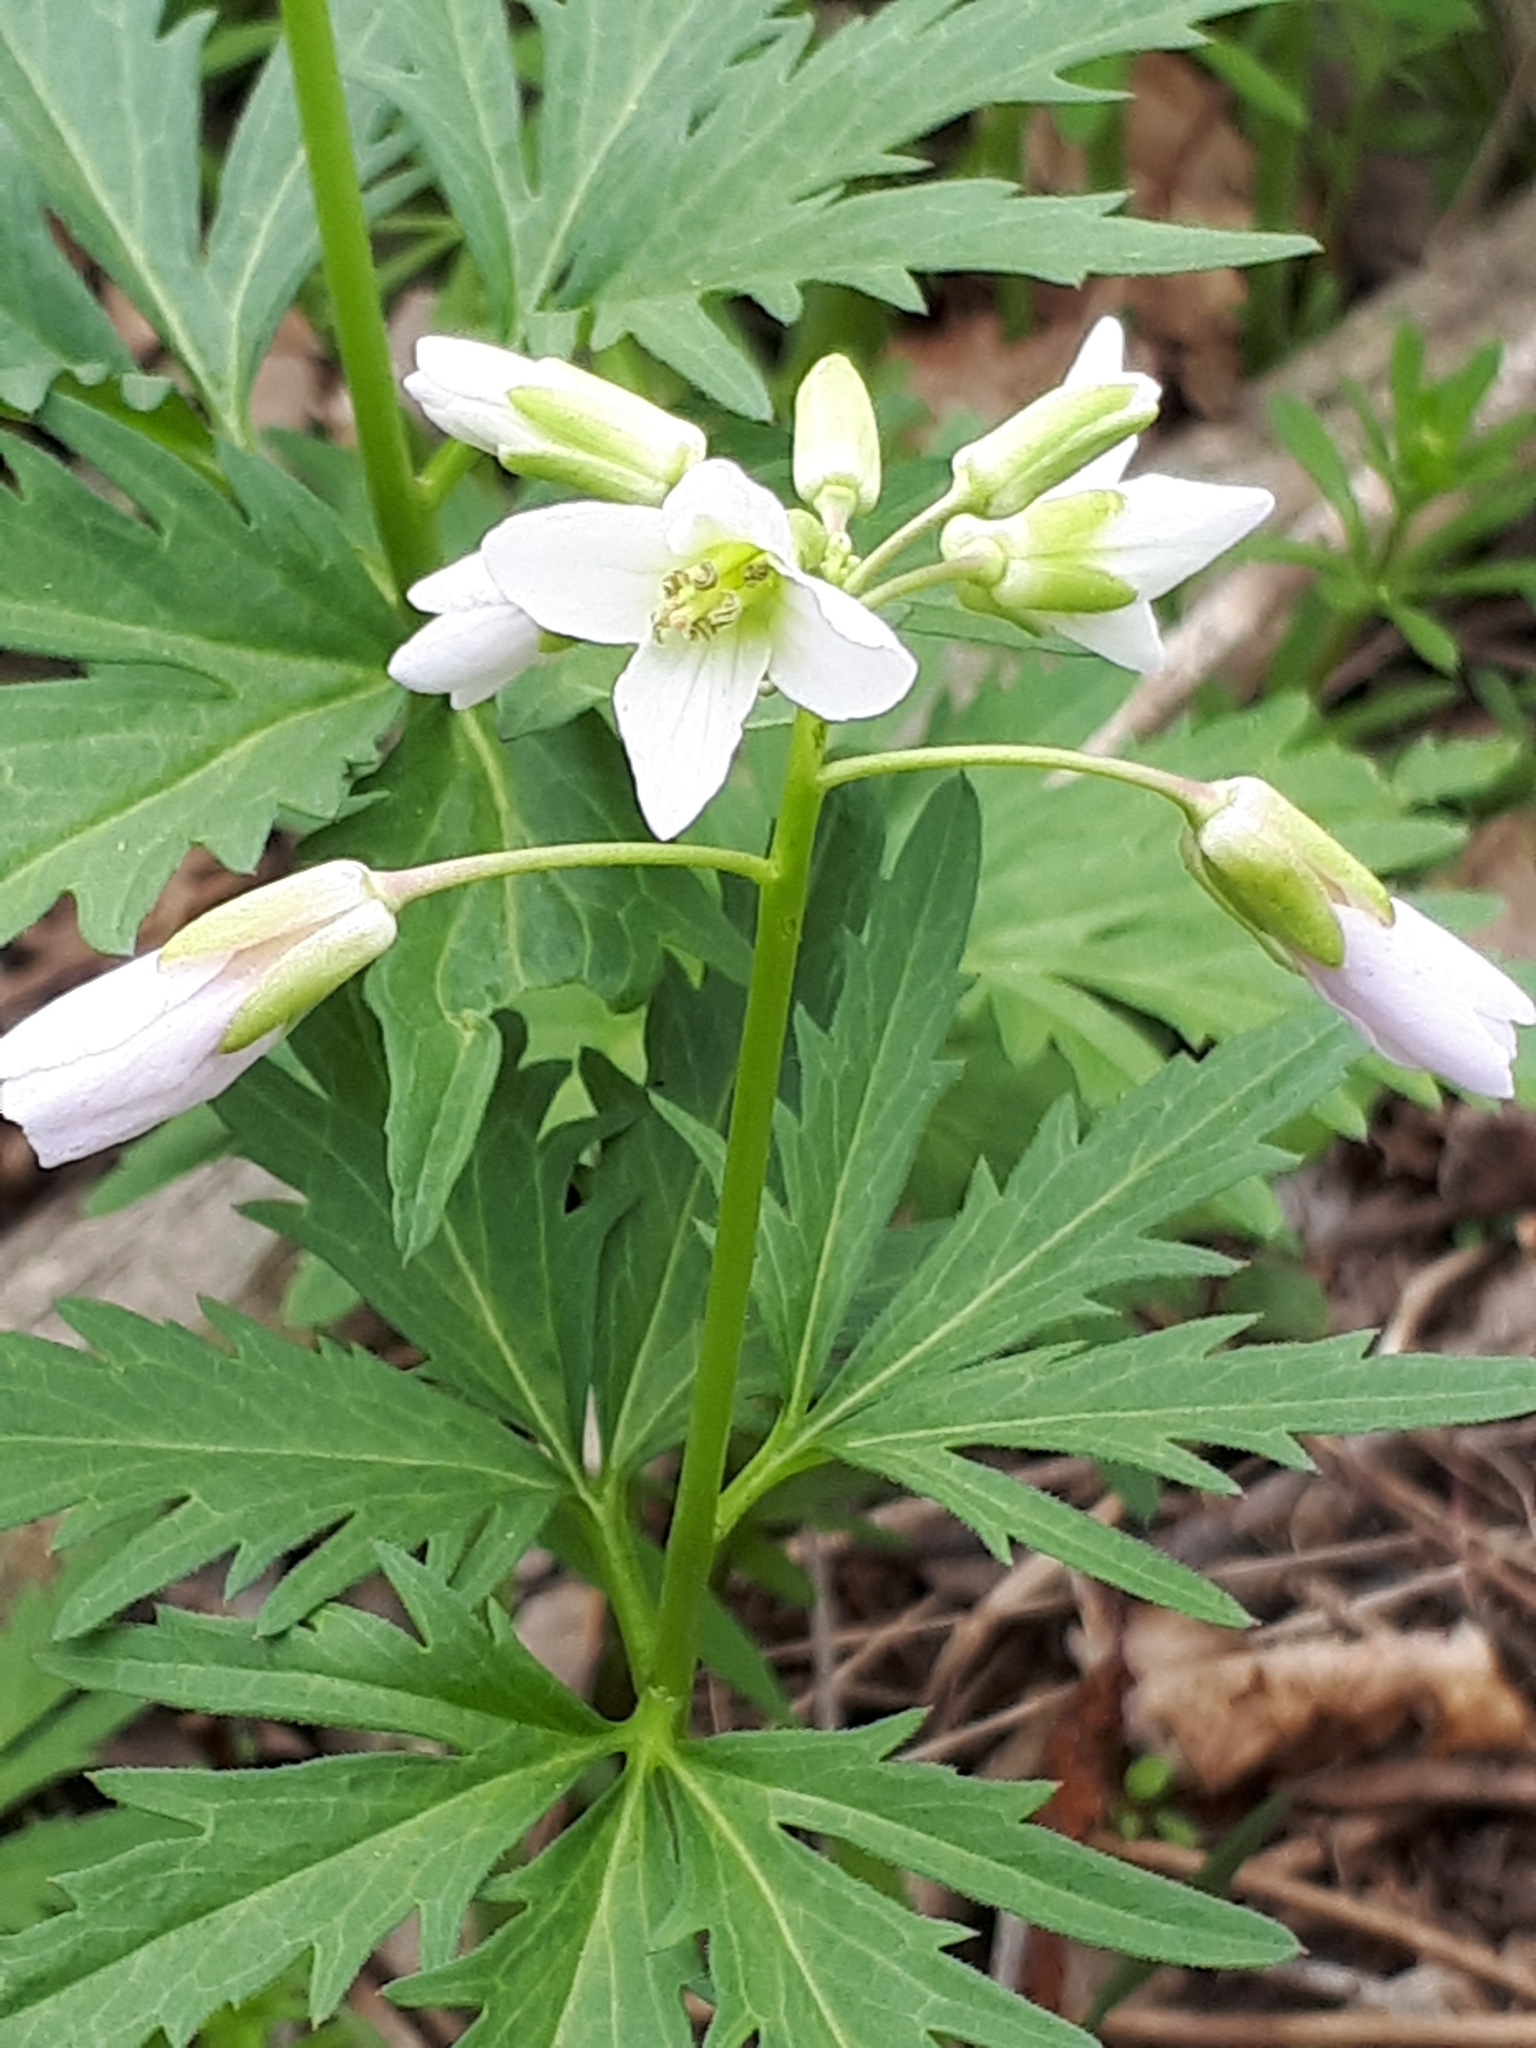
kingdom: Plantae
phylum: Tracheophyta
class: Magnoliopsida
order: Brassicales
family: Brassicaceae
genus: Cardamine
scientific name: Cardamine concatenata
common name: Cut-leaf toothcup
